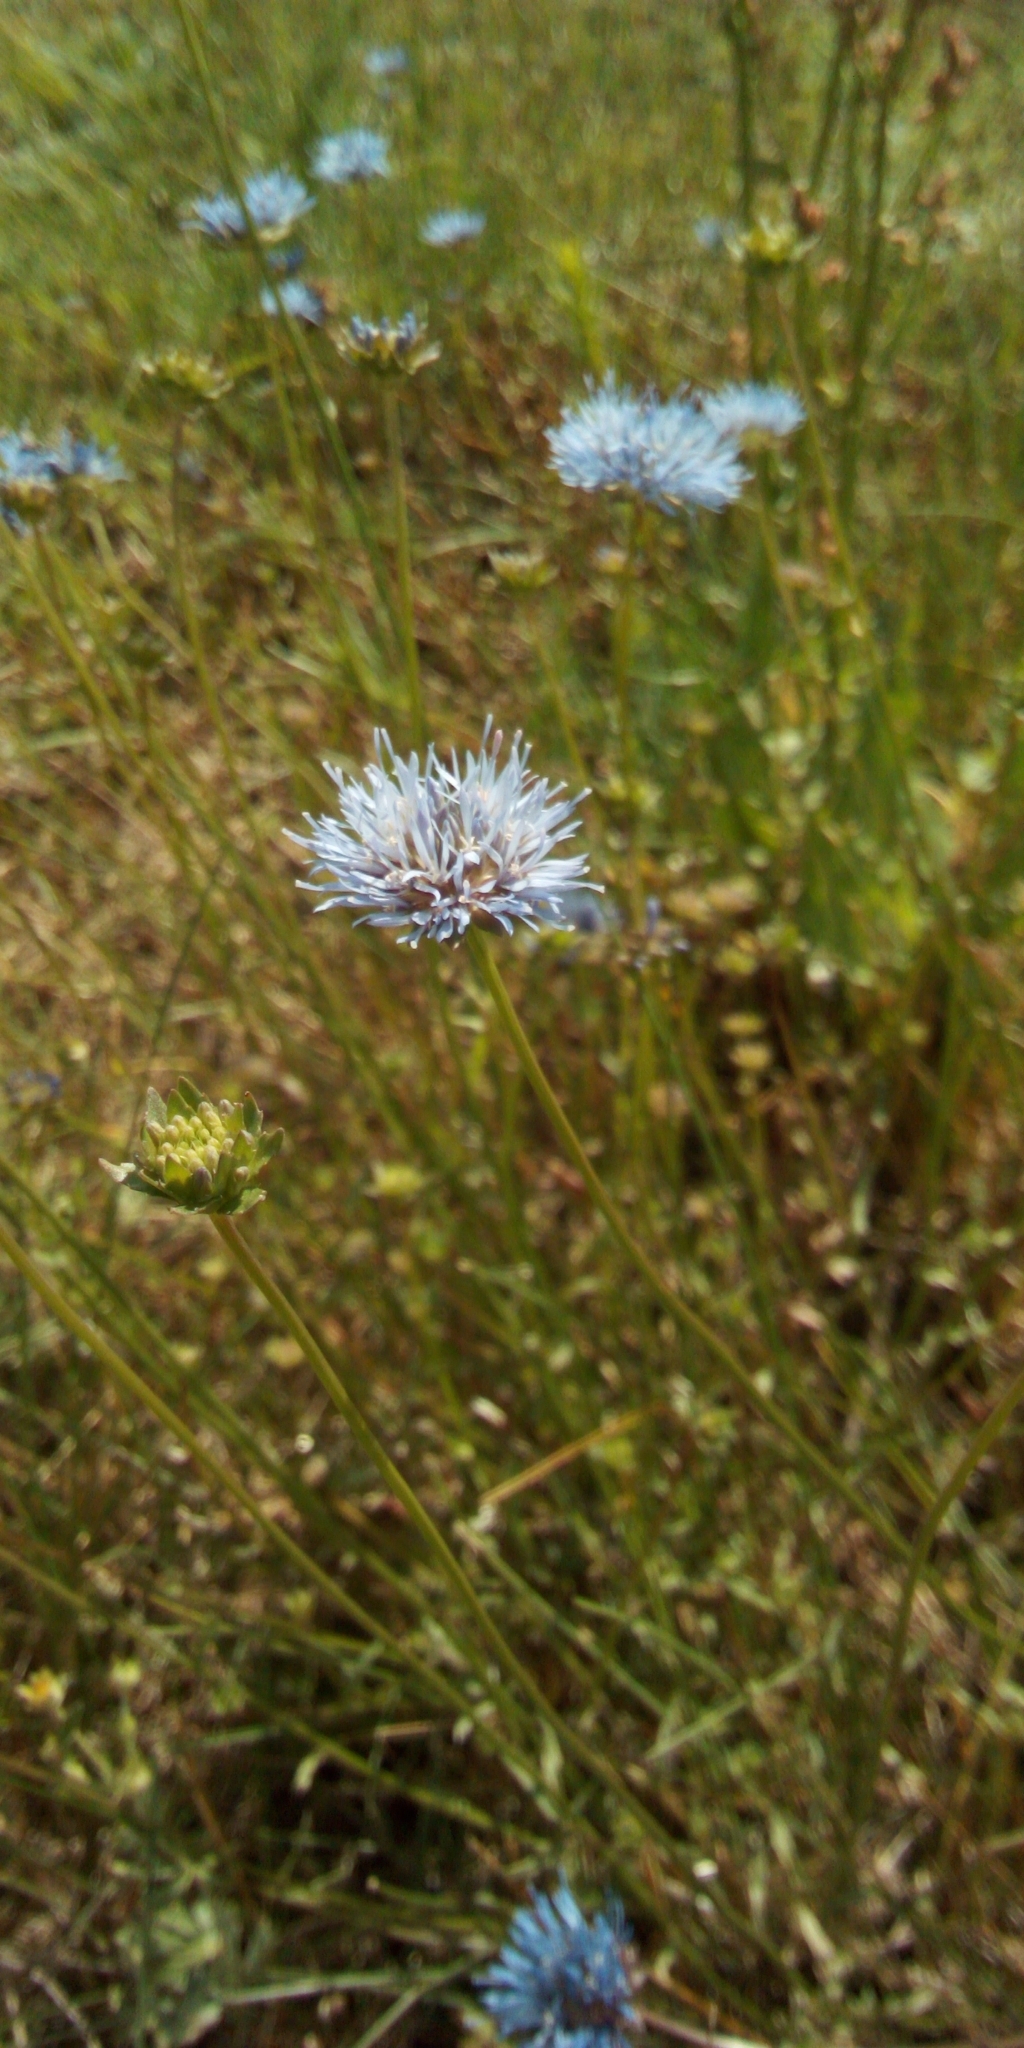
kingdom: Plantae
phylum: Tracheophyta
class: Magnoliopsida
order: Asterales
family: Campanulaceae
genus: Jasione
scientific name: Jasione montana
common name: Sheep's-bit
